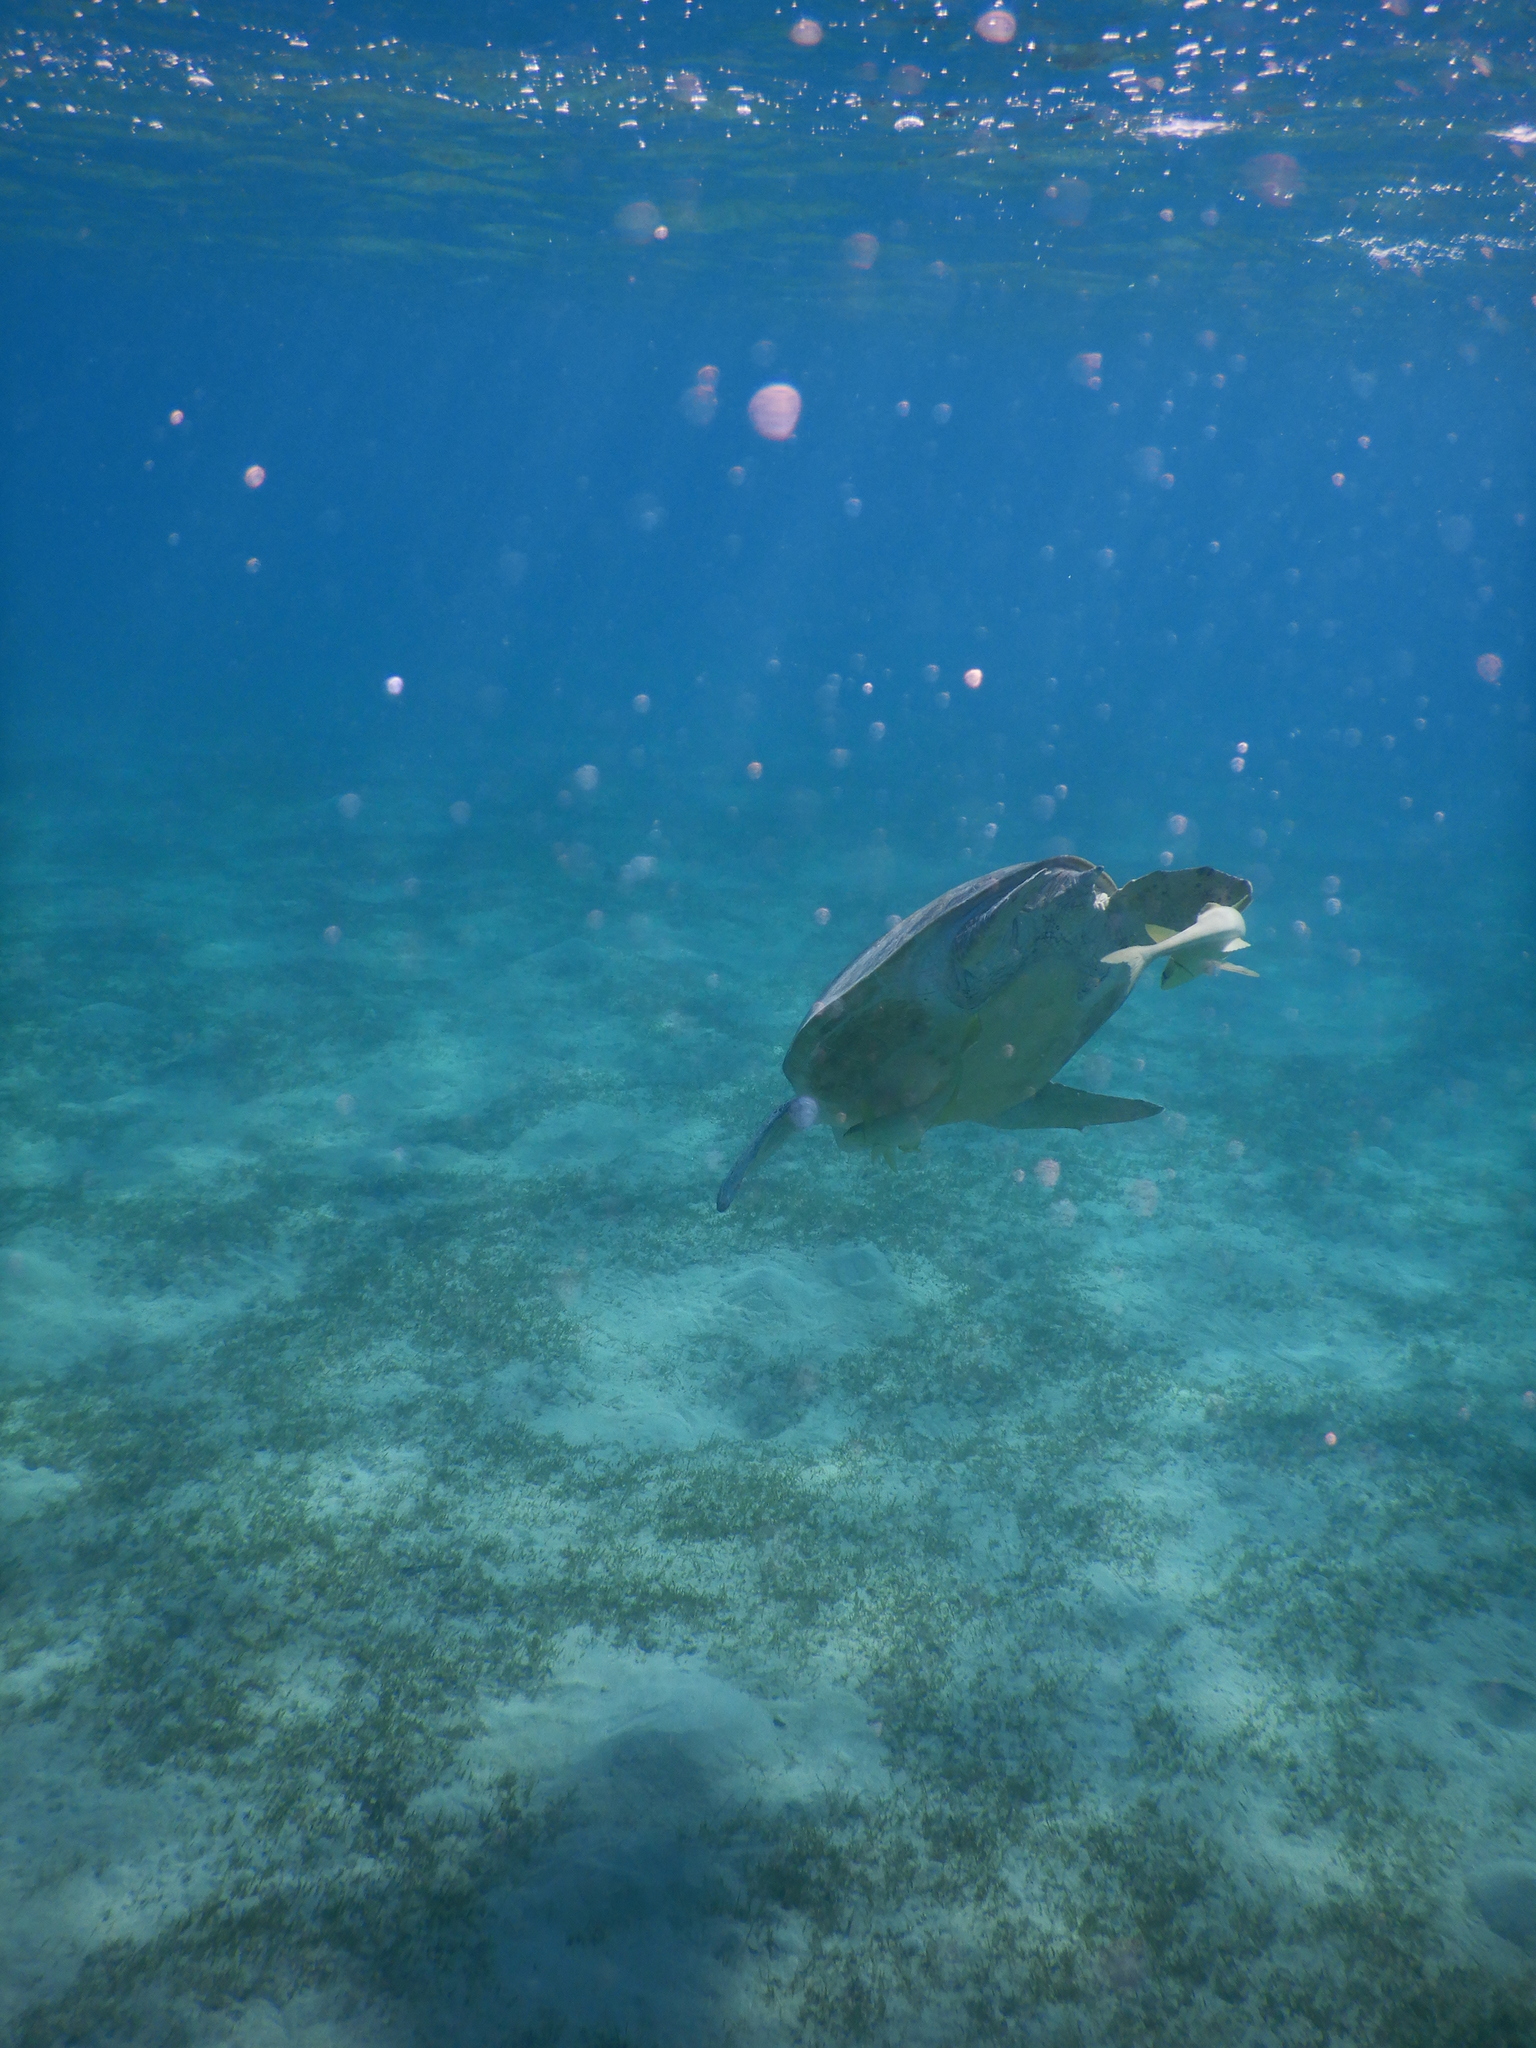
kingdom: Animalia
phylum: Chordata
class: Testudines
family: Cheloniidae
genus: Chelonia
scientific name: Chelonia mydas
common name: Green turtle
